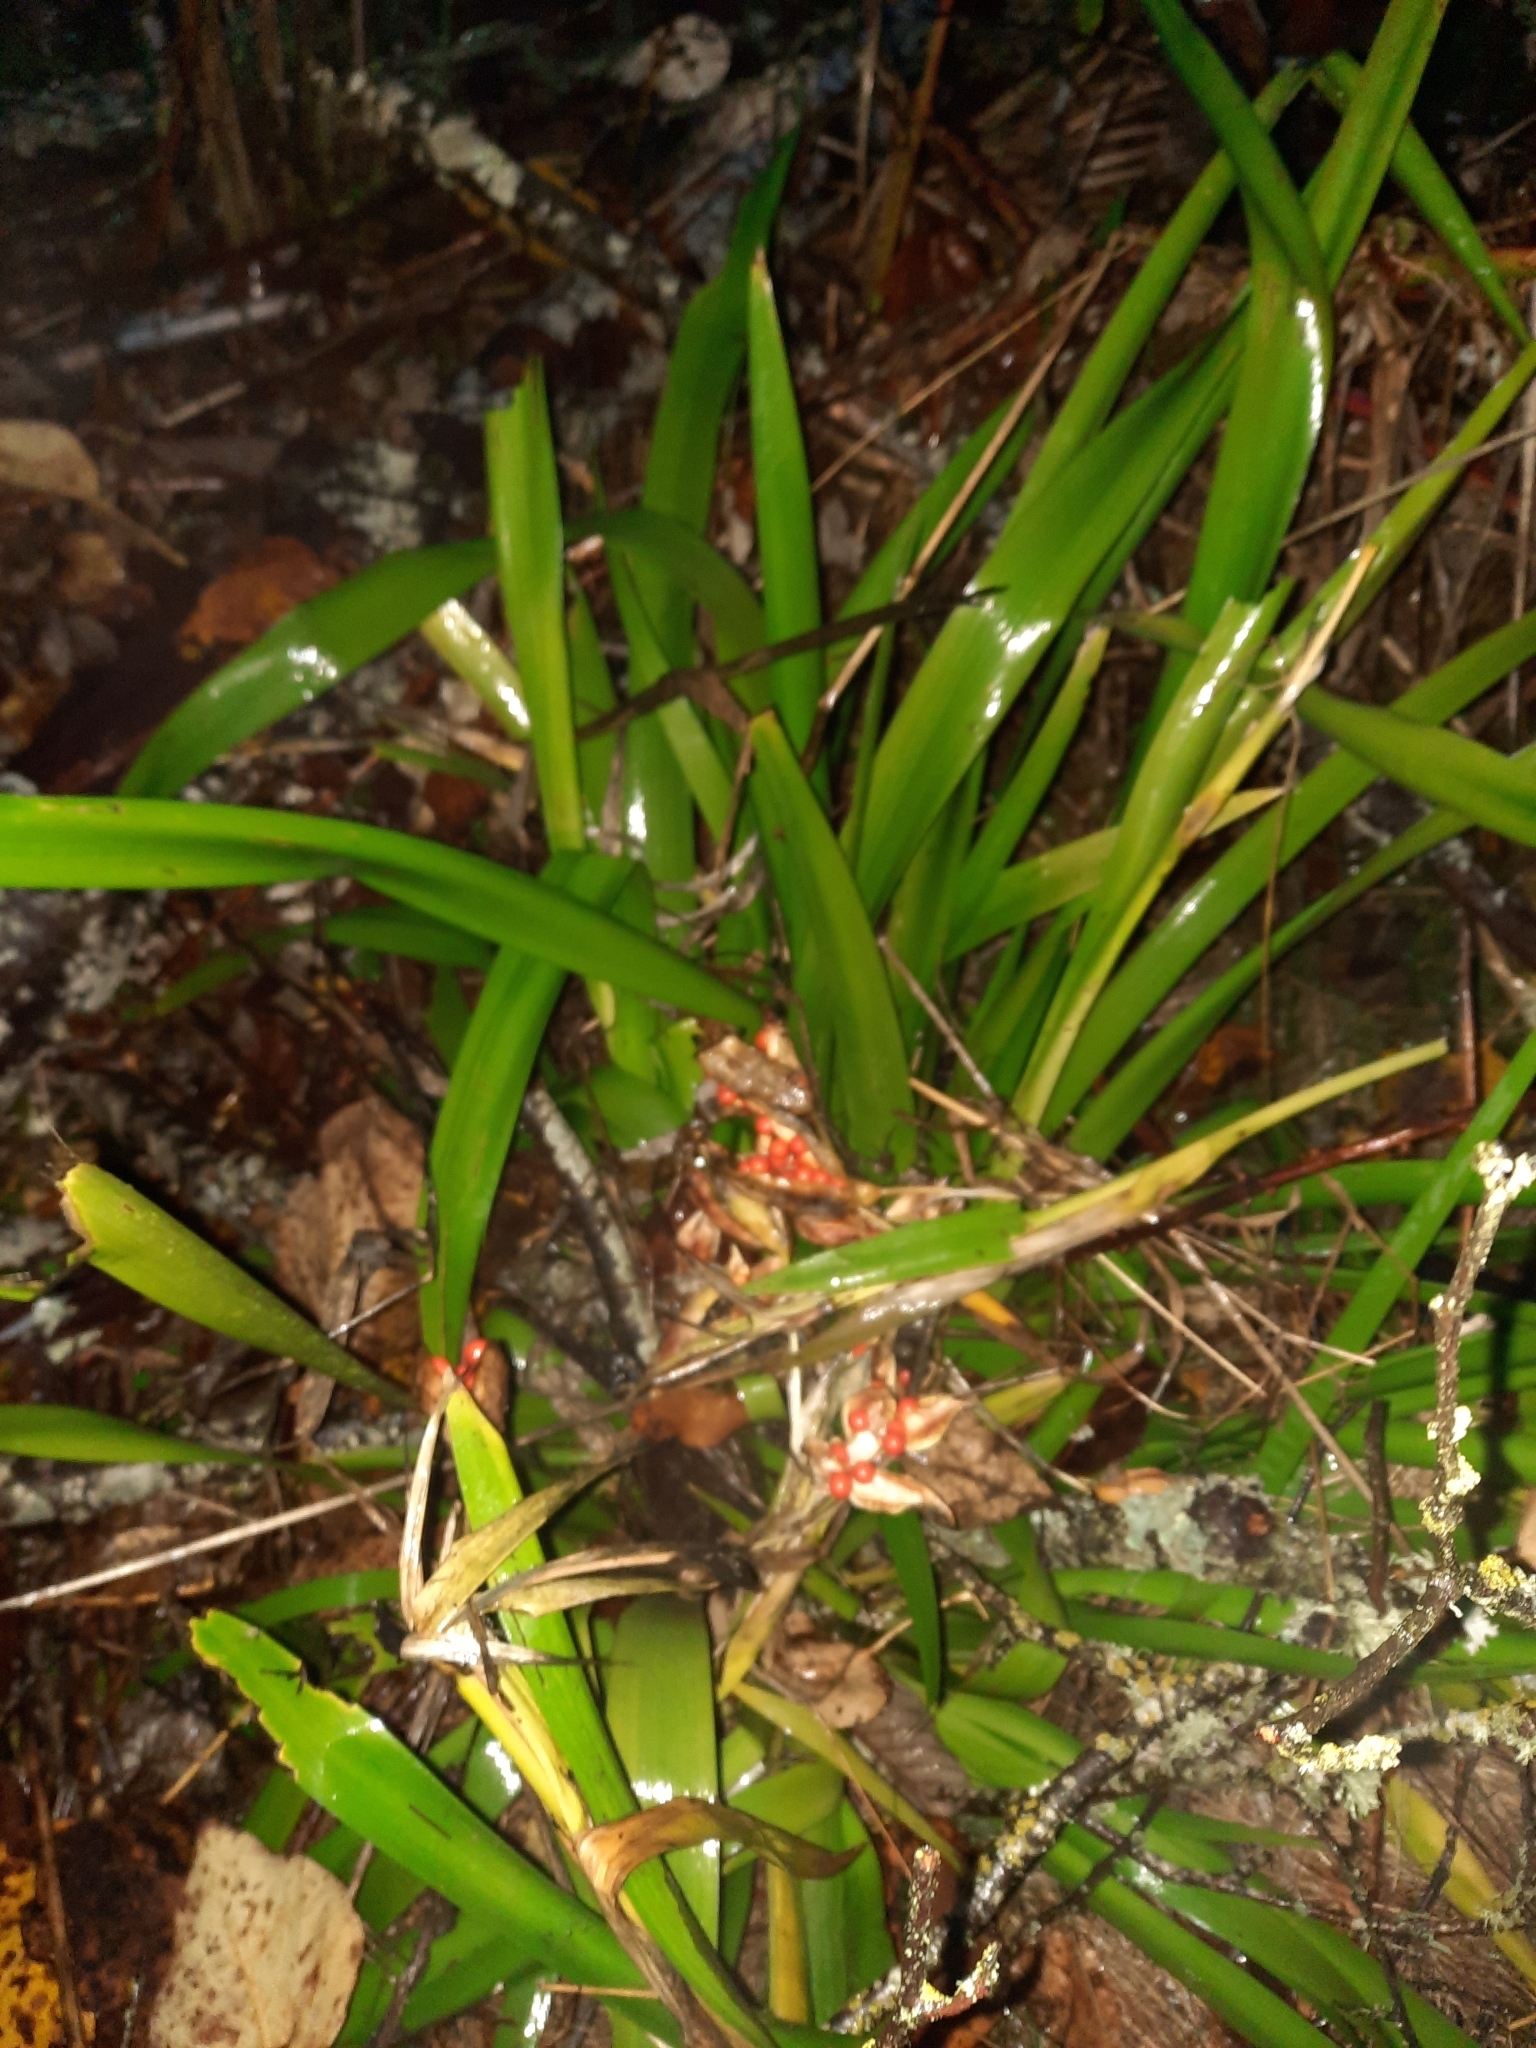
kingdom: Plantae
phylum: Tracheophyta
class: Liliopsida
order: Asparagales
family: Iridaceae
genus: Iris
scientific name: Iris foetidissima
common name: Stinking iris
